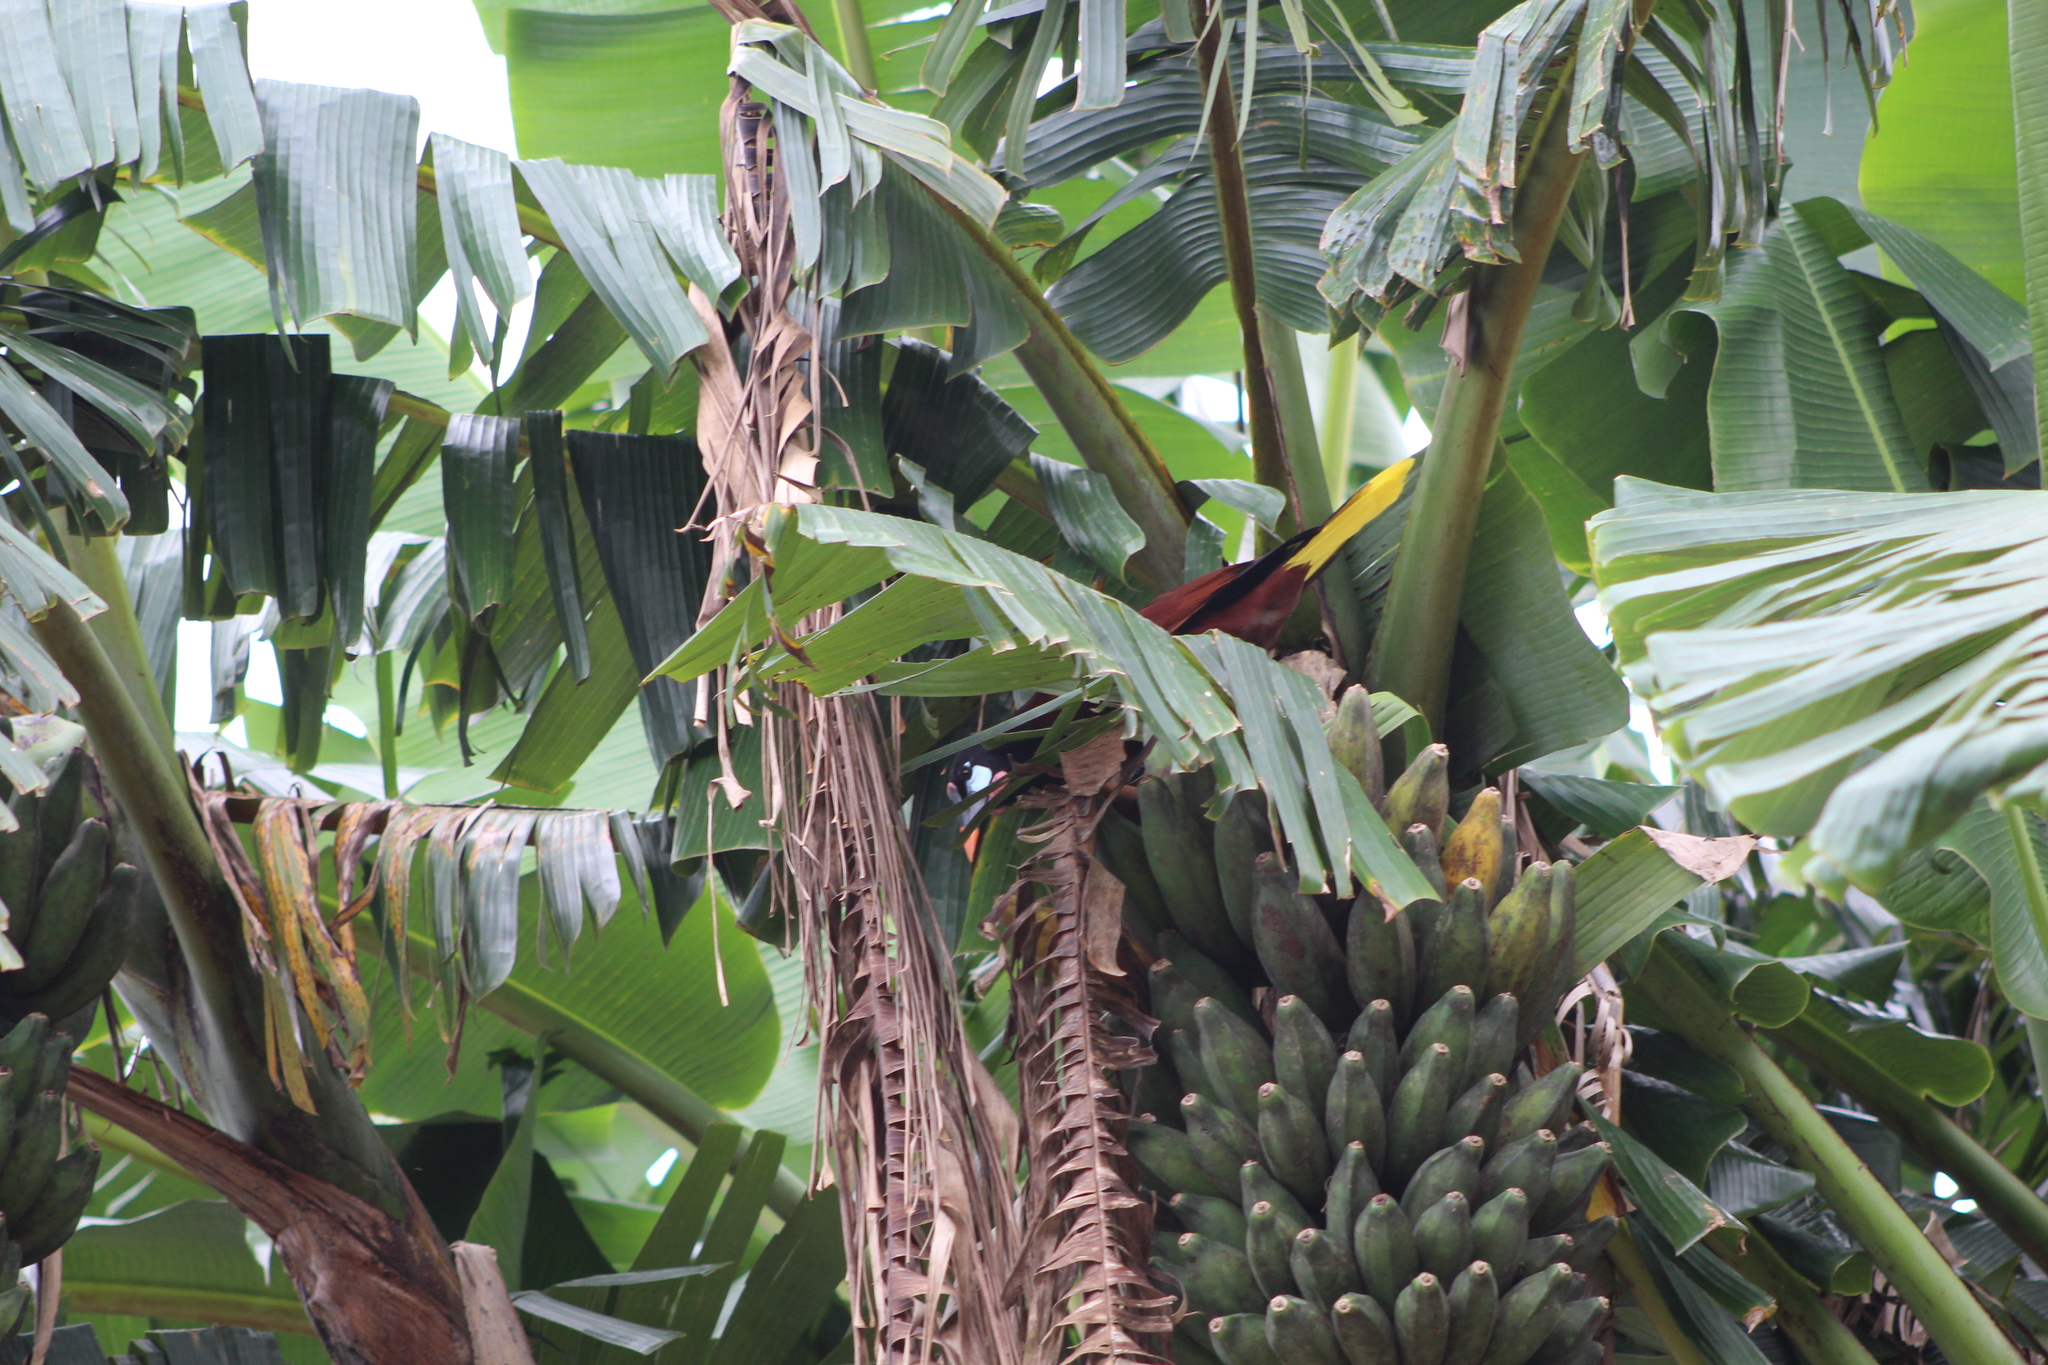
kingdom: Animalia
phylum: Chordata
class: Aves
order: Passeriformes
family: Icteridae
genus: Psarocolius
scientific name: Psarocolius montezuma
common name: Montezuma oropendola
